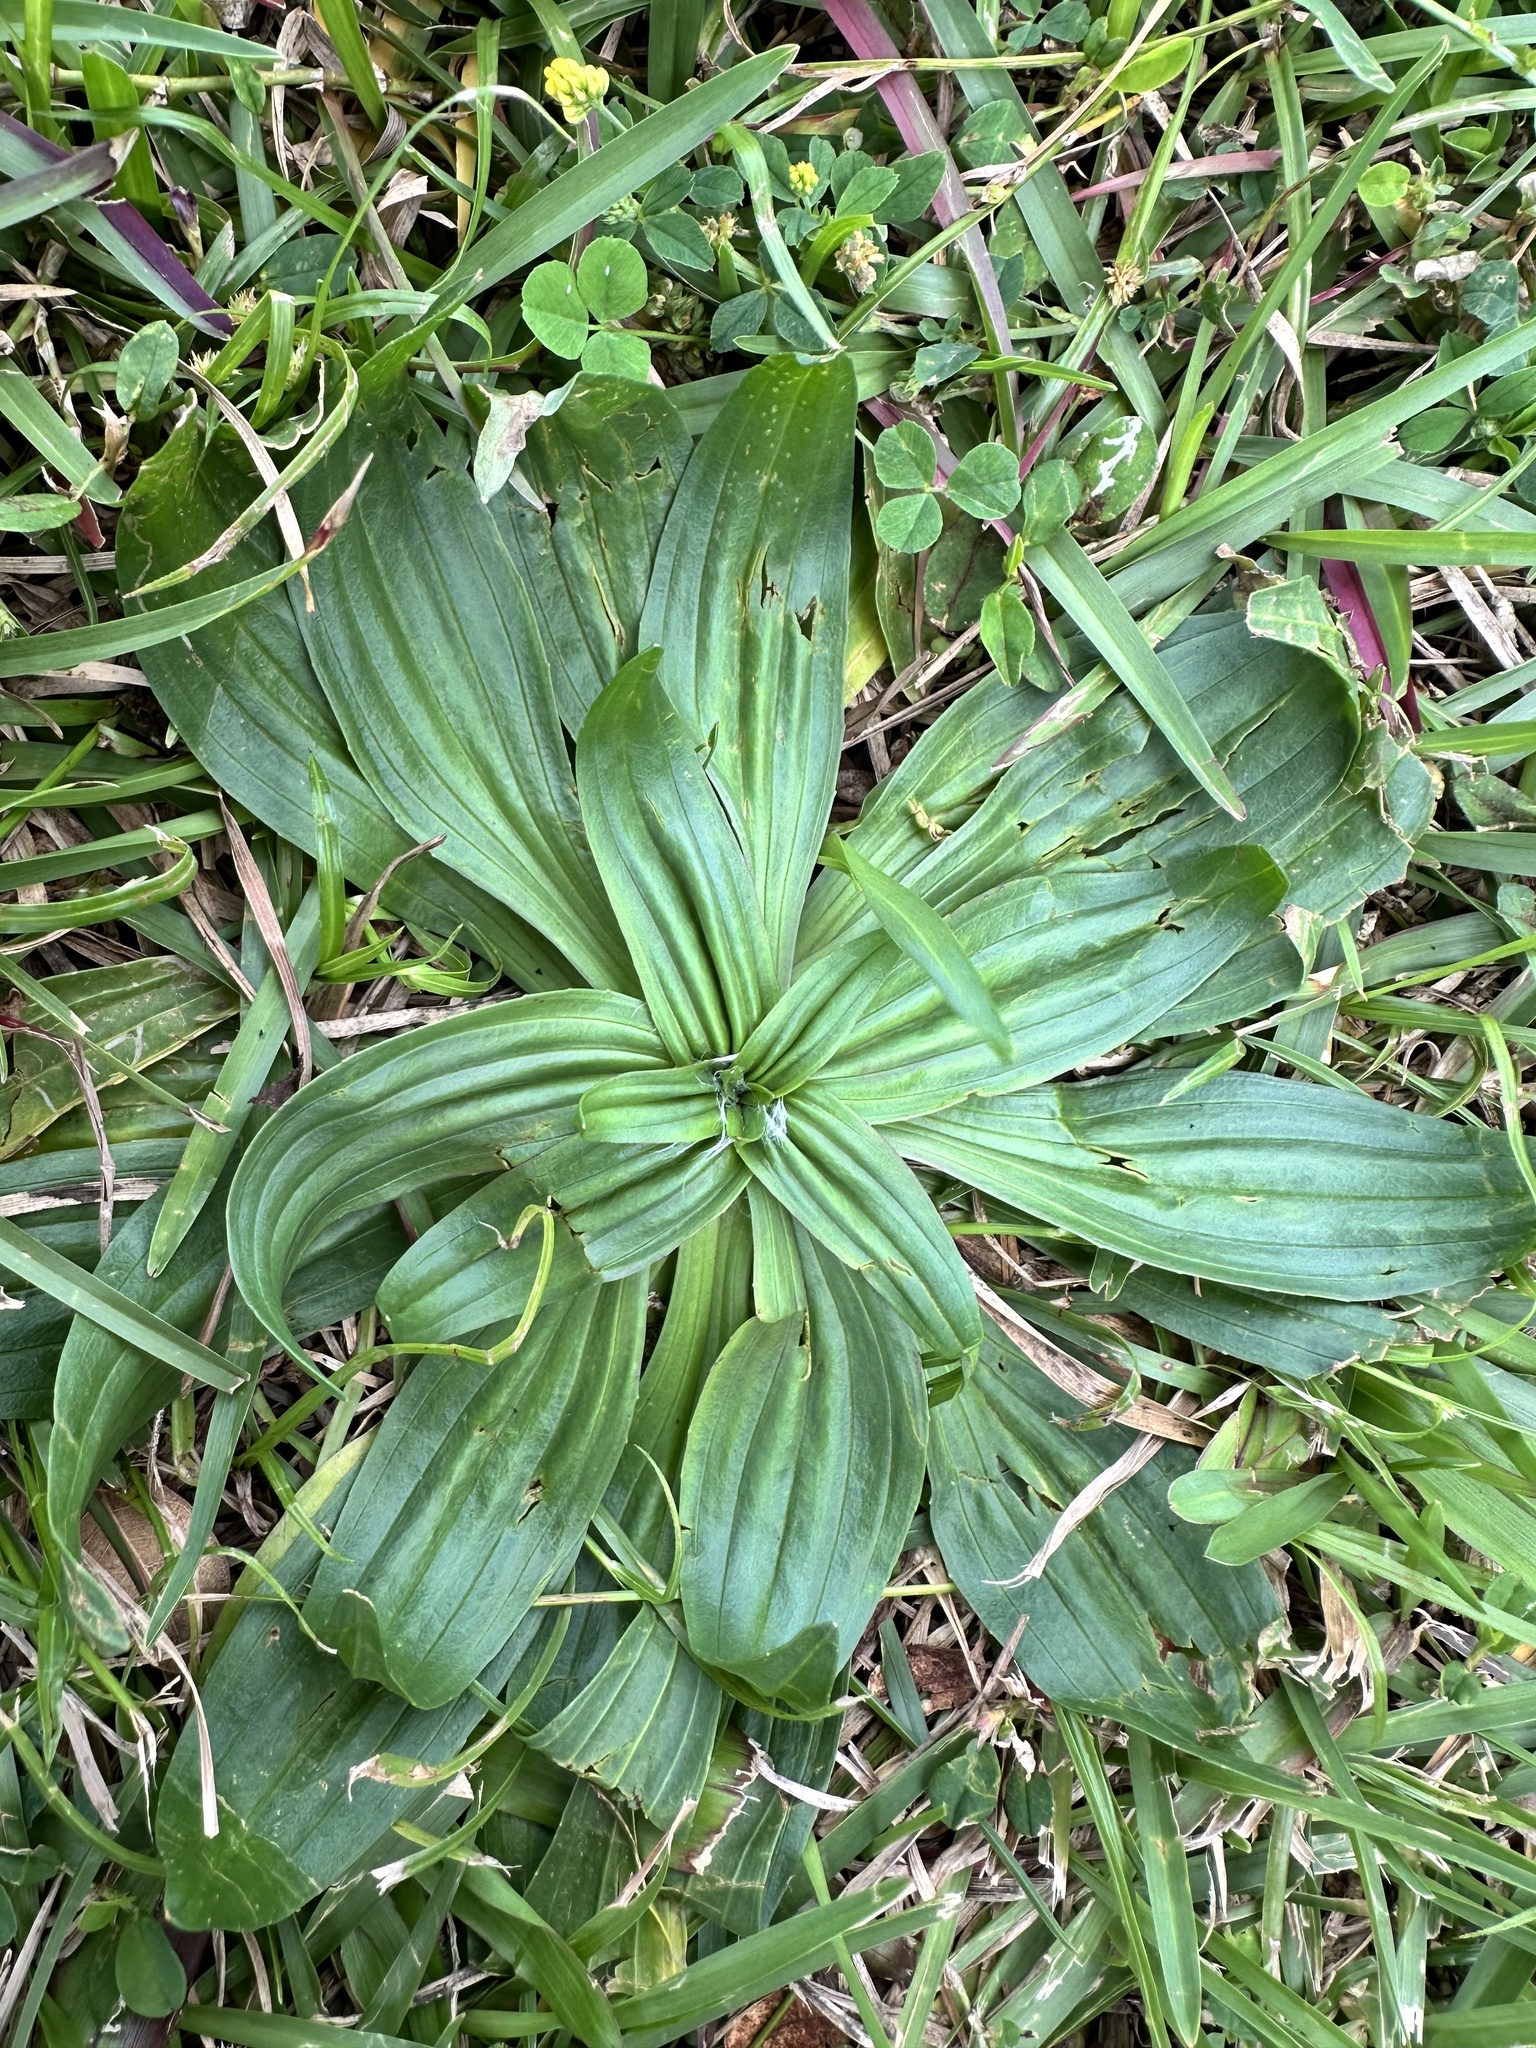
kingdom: Plantae
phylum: Tracheophyta
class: Magnoliopsida
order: Lamiales
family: Plantaginaceae
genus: Plantago
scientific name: Plantago lanceolata
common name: Ribwort plantain
